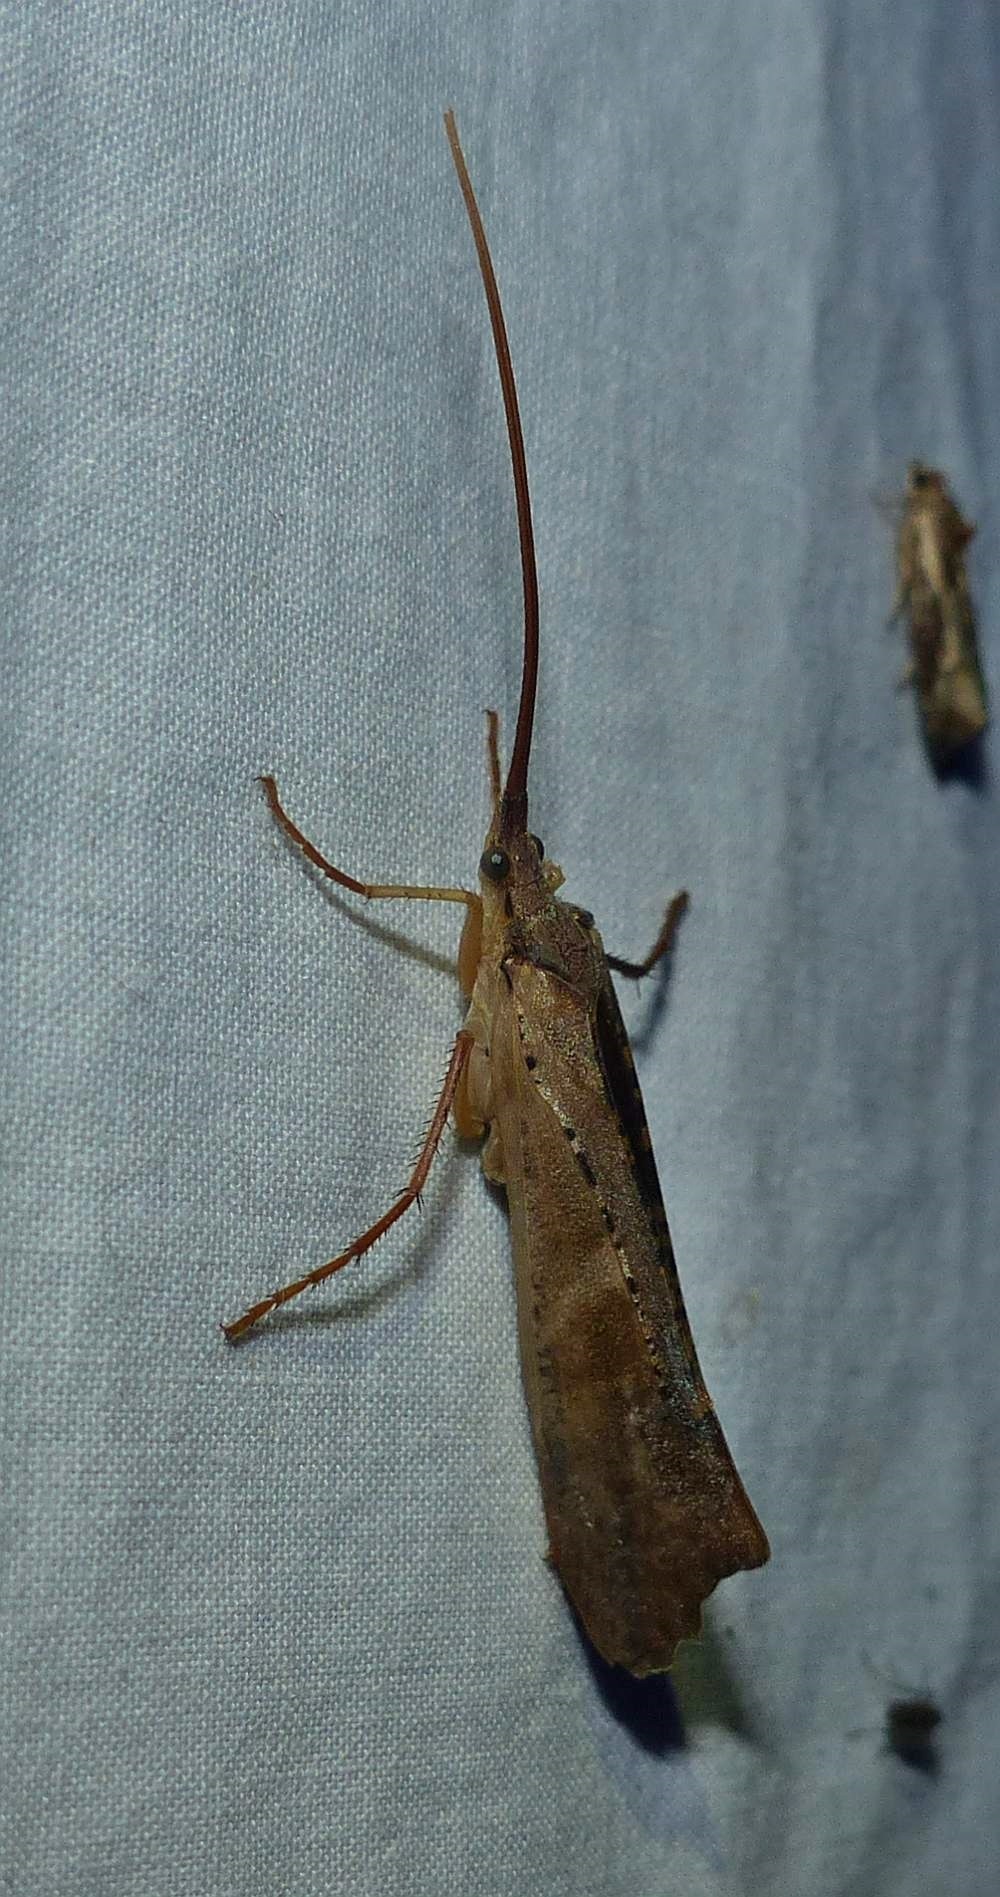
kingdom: Animalia
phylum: Arthropoda
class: Insecta
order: Trichoptera
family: Limnephilidae
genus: Nemotaulius
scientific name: Nemotaulius hostilis
